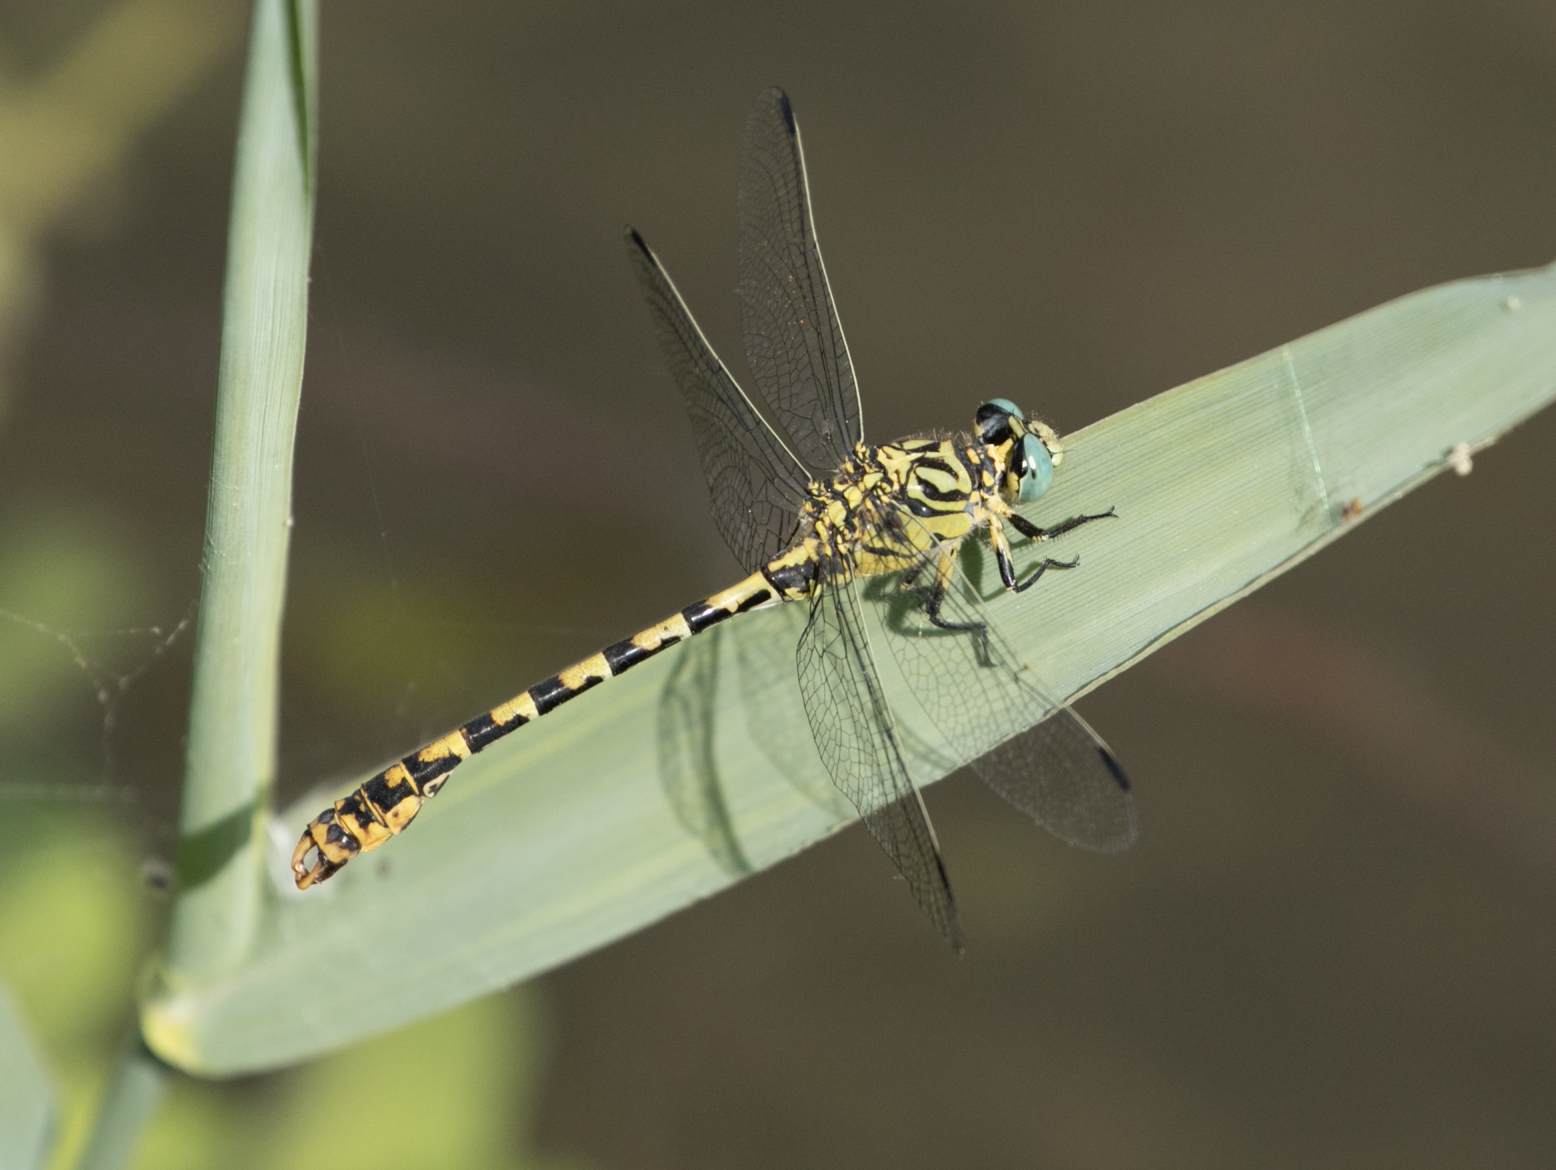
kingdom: Animalia
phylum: Arthropoda
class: Insecta
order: Odonata
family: Gomphidae
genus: Onychogomphus
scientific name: Onychogomphus forcipatus
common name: Small pincertail
